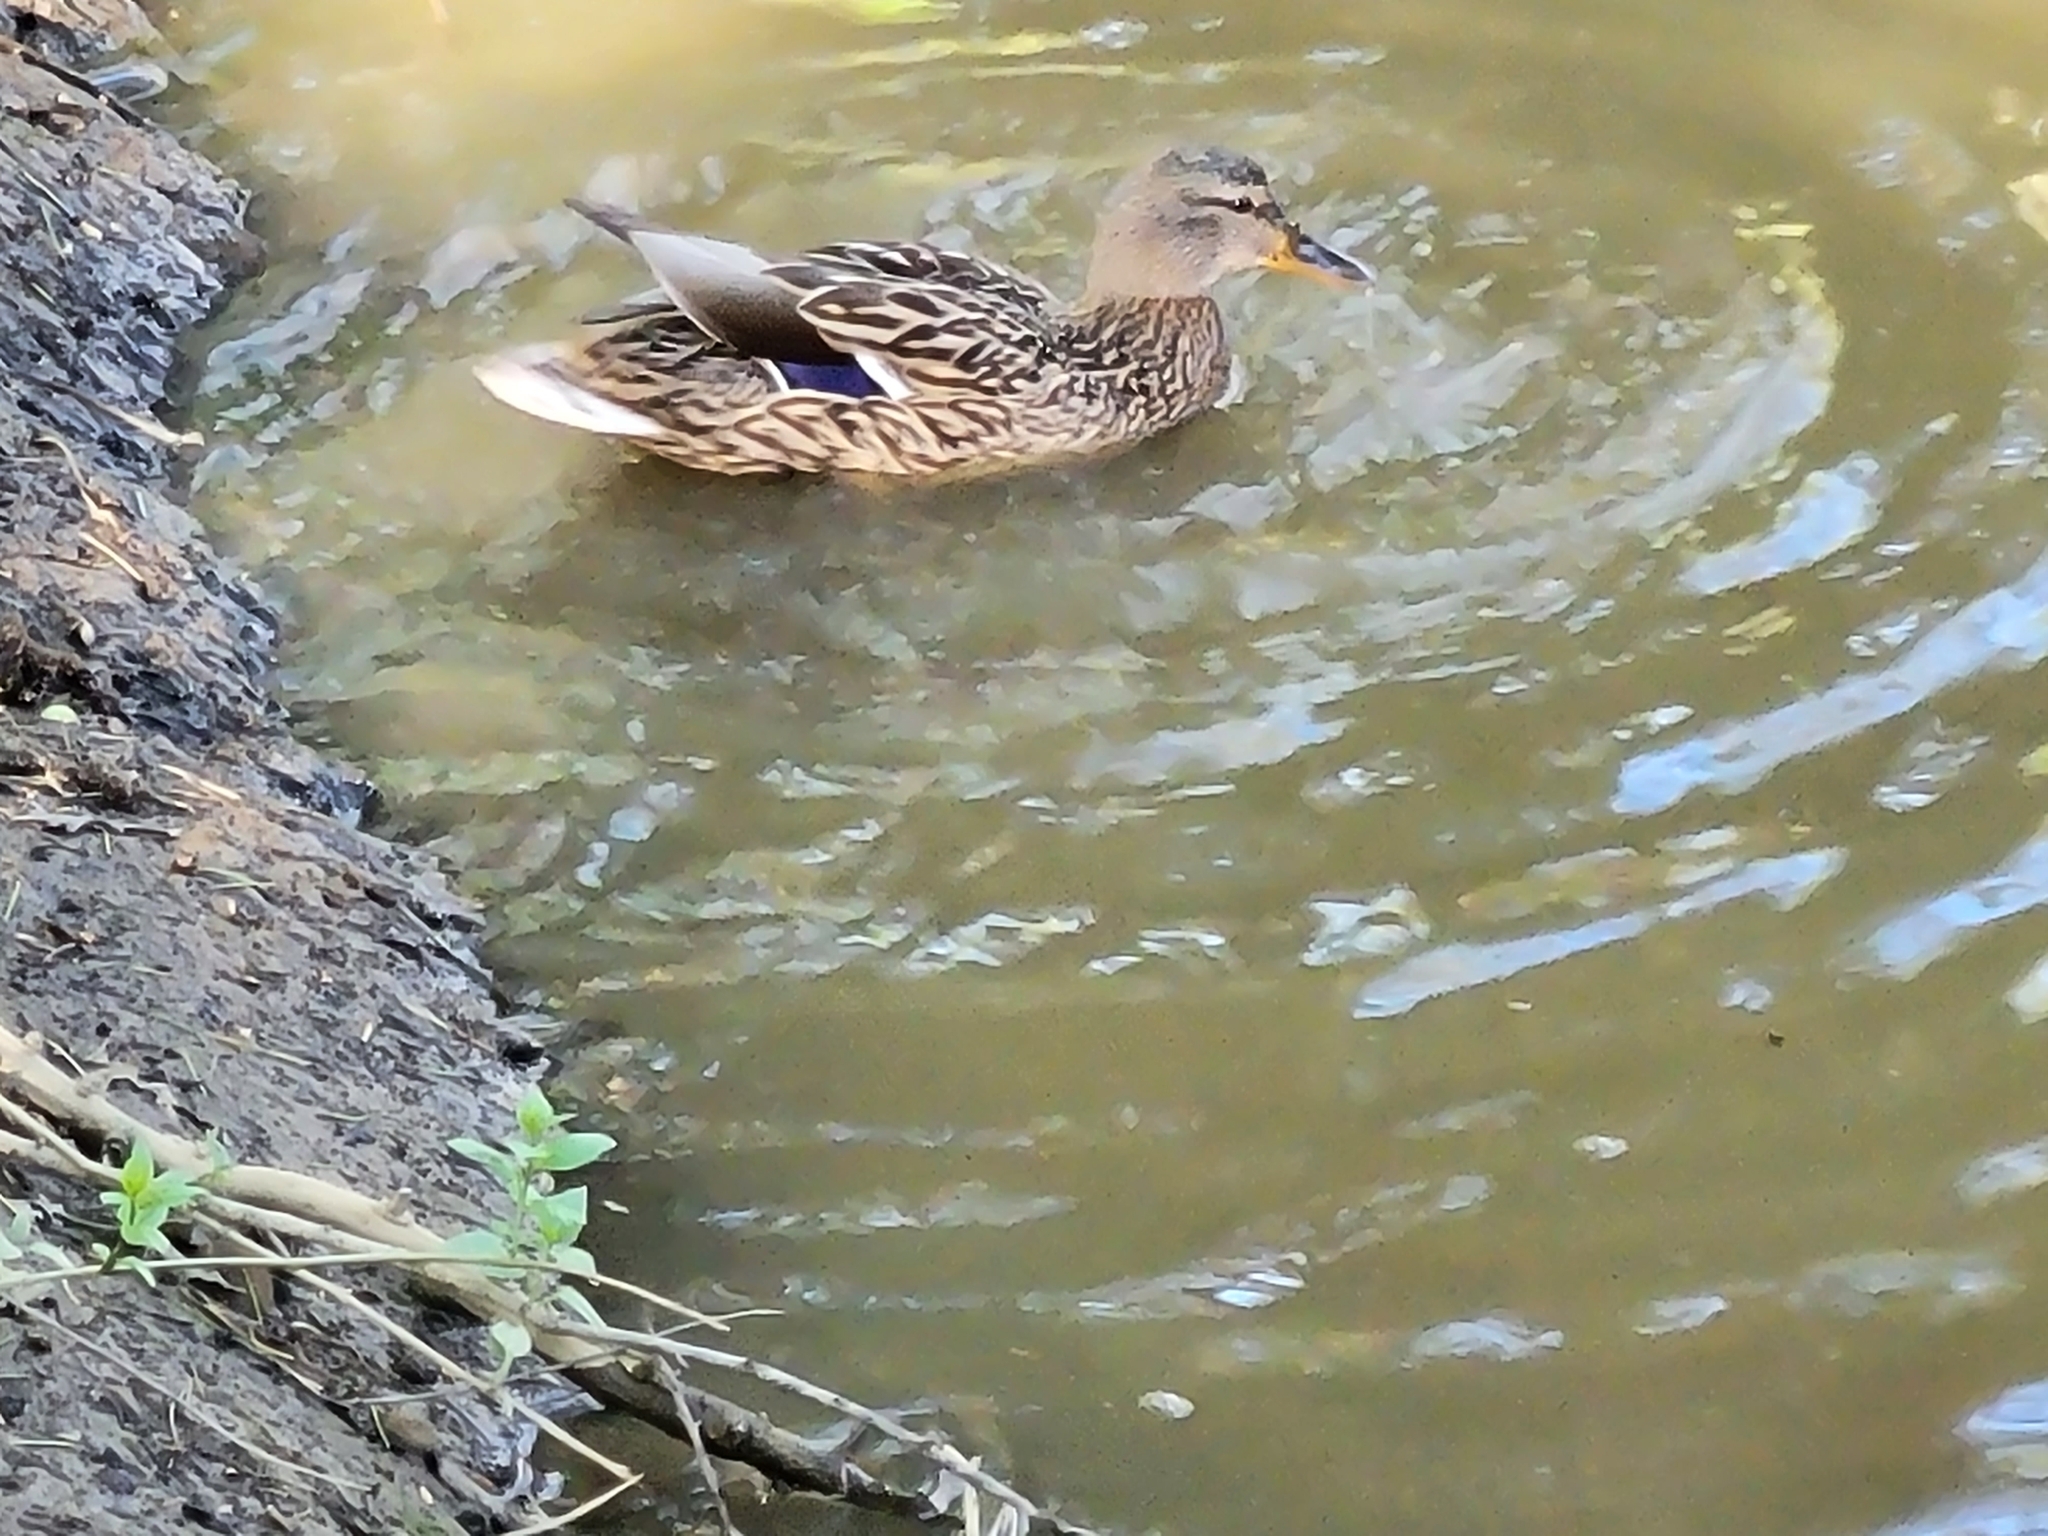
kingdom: Animalia
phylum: Chordata
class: Aves
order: Anseriformes
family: Anatidae
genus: Anas
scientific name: Anas platyrhynchos
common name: Mallard
